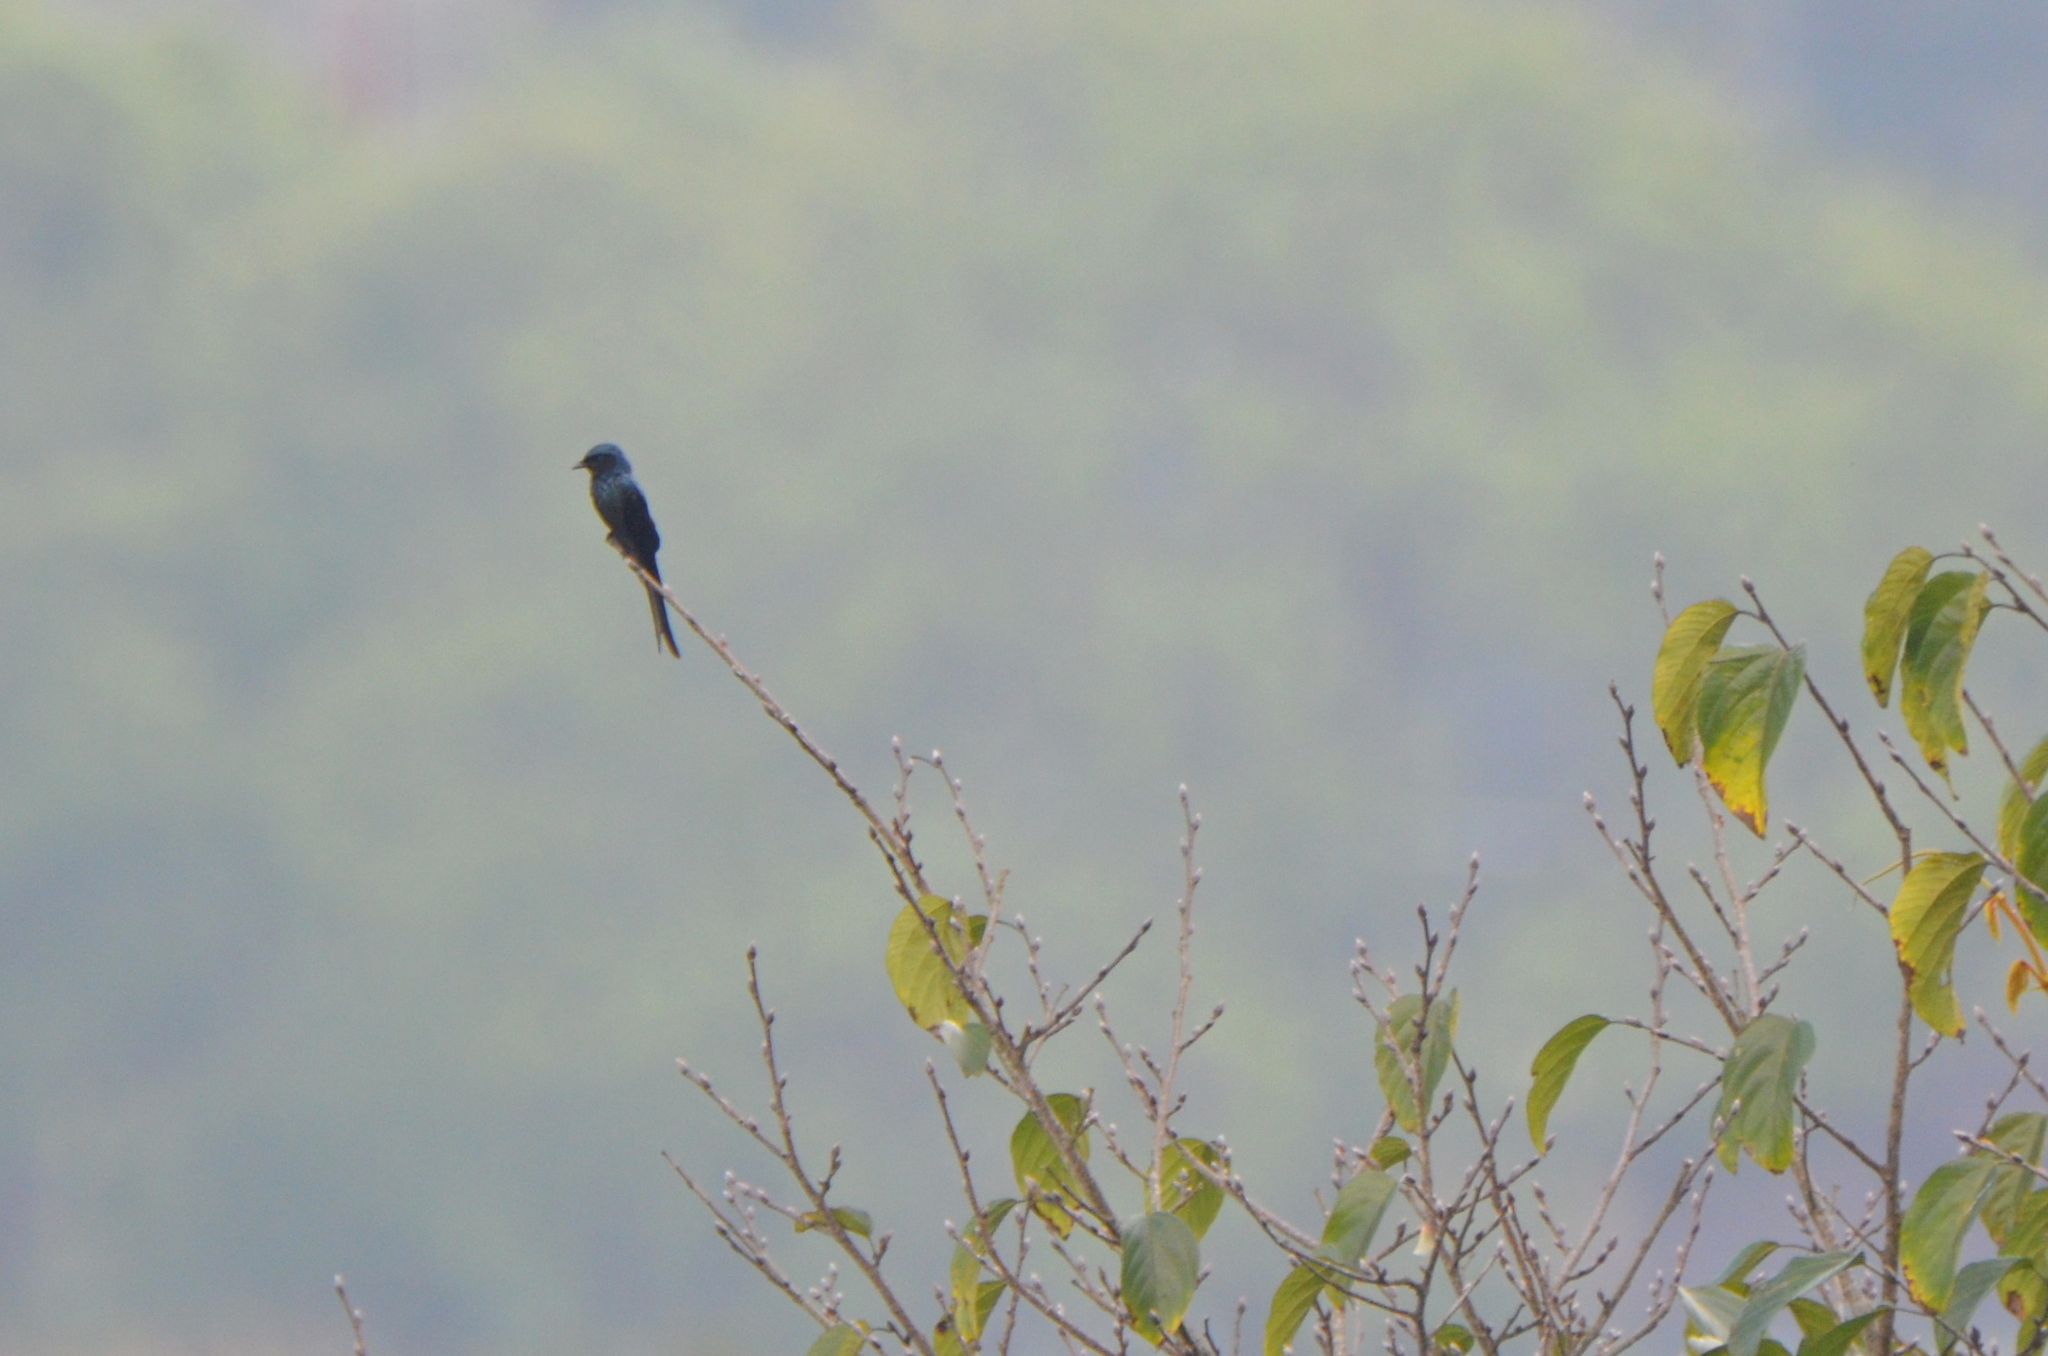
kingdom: Animalia
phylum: Chordata
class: Aves
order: Passeriformes
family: Dicruridae
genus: Dicrurus
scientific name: Dicrurus aeneus
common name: Bronzed drongo
